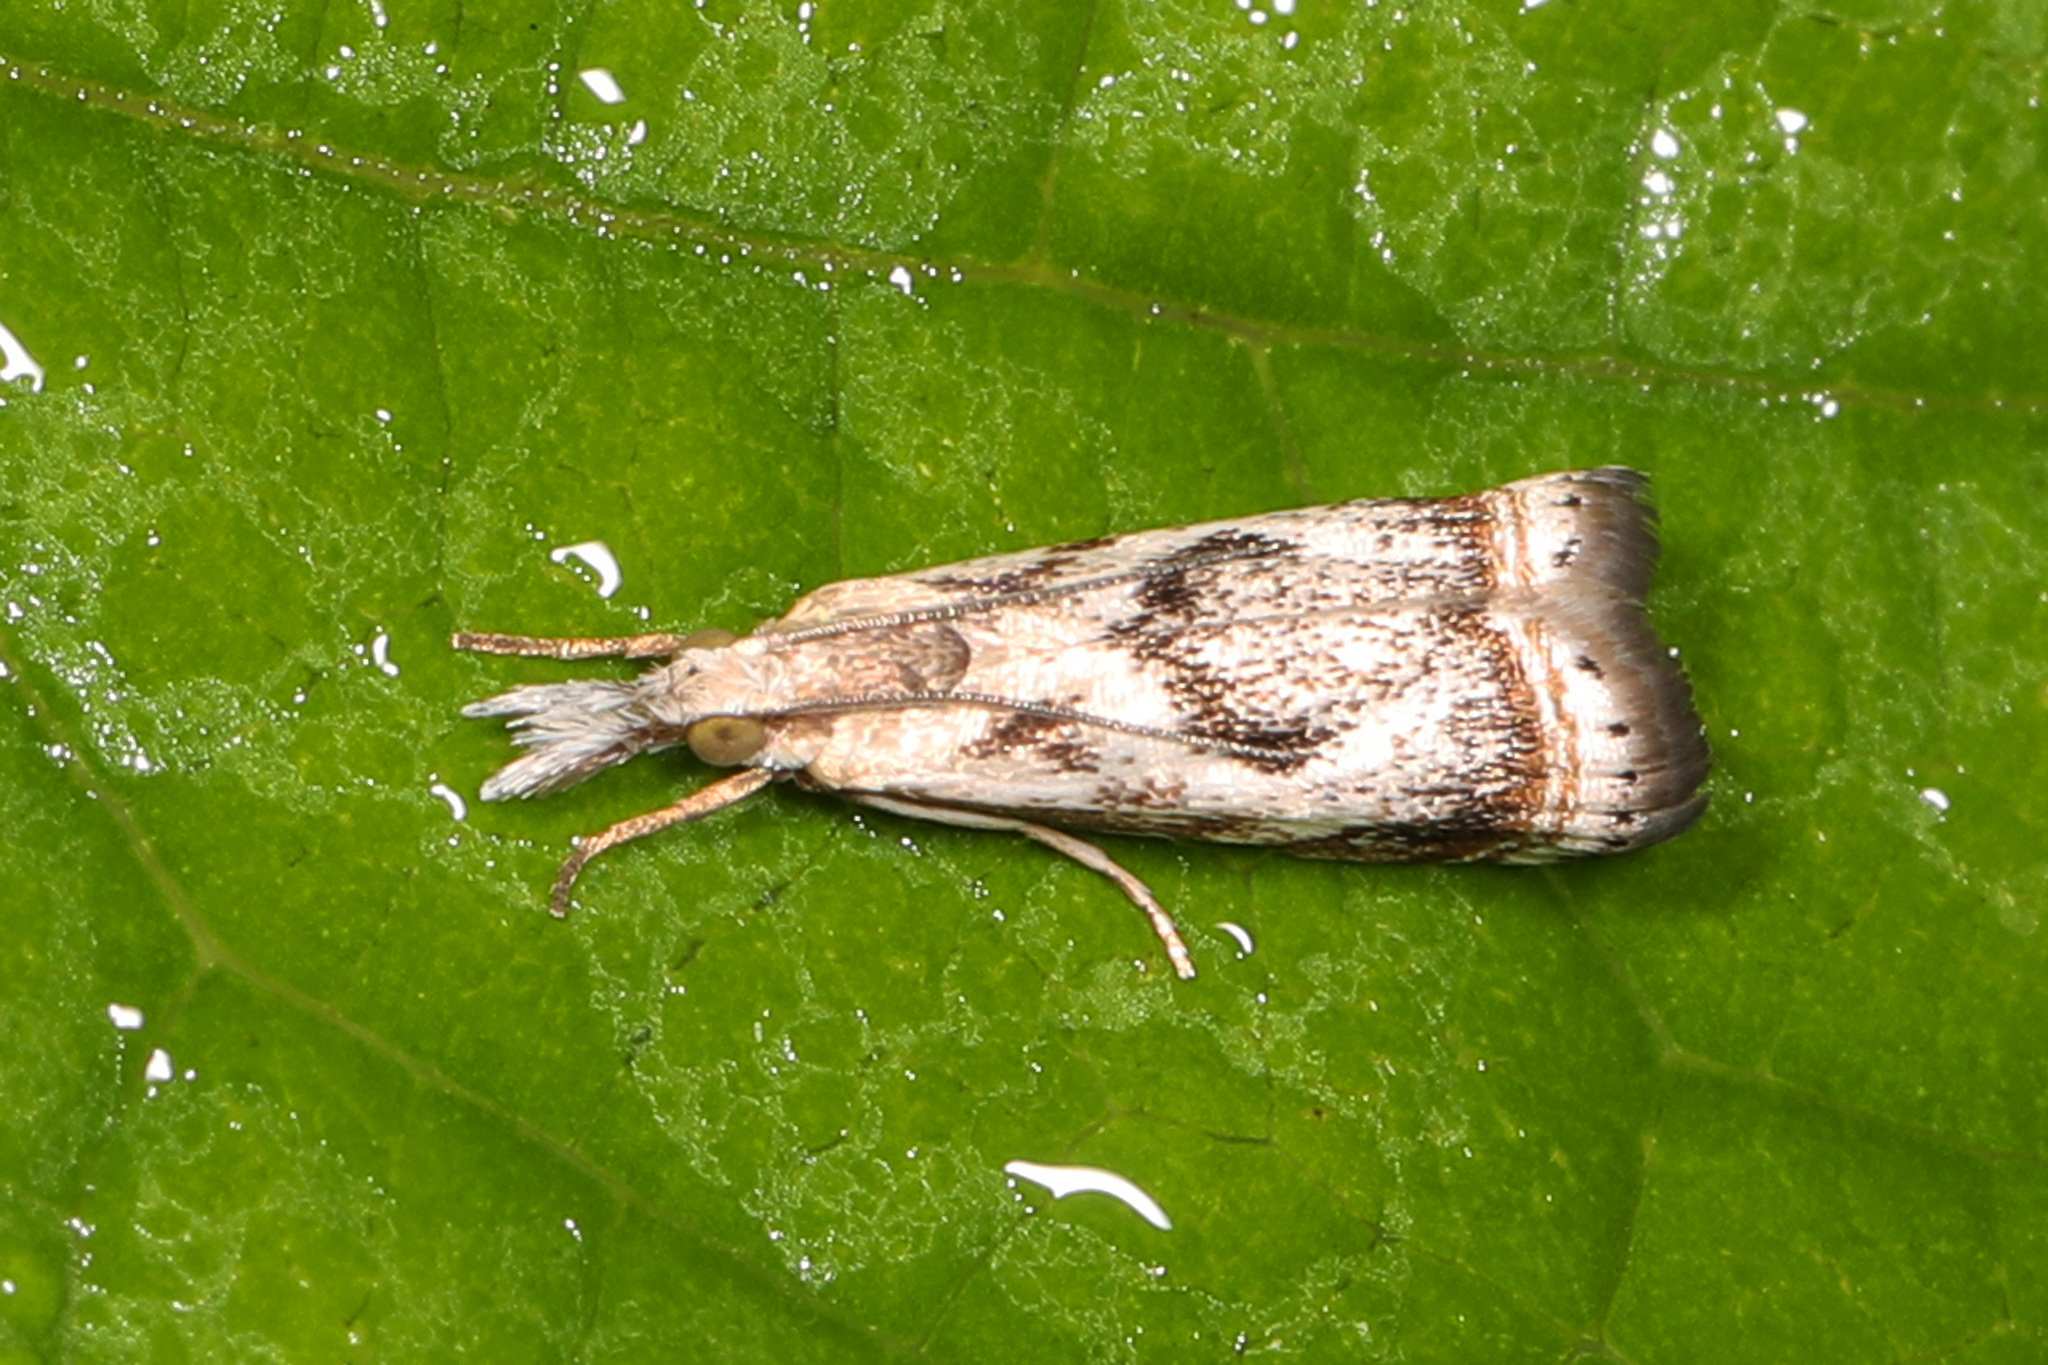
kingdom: Animalia
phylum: Arthropoda
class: Insecta
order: Lepidoptera
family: Crambidae
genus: Microcrambus
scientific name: Microcrambus elegans
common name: Elegant grass-veneer
